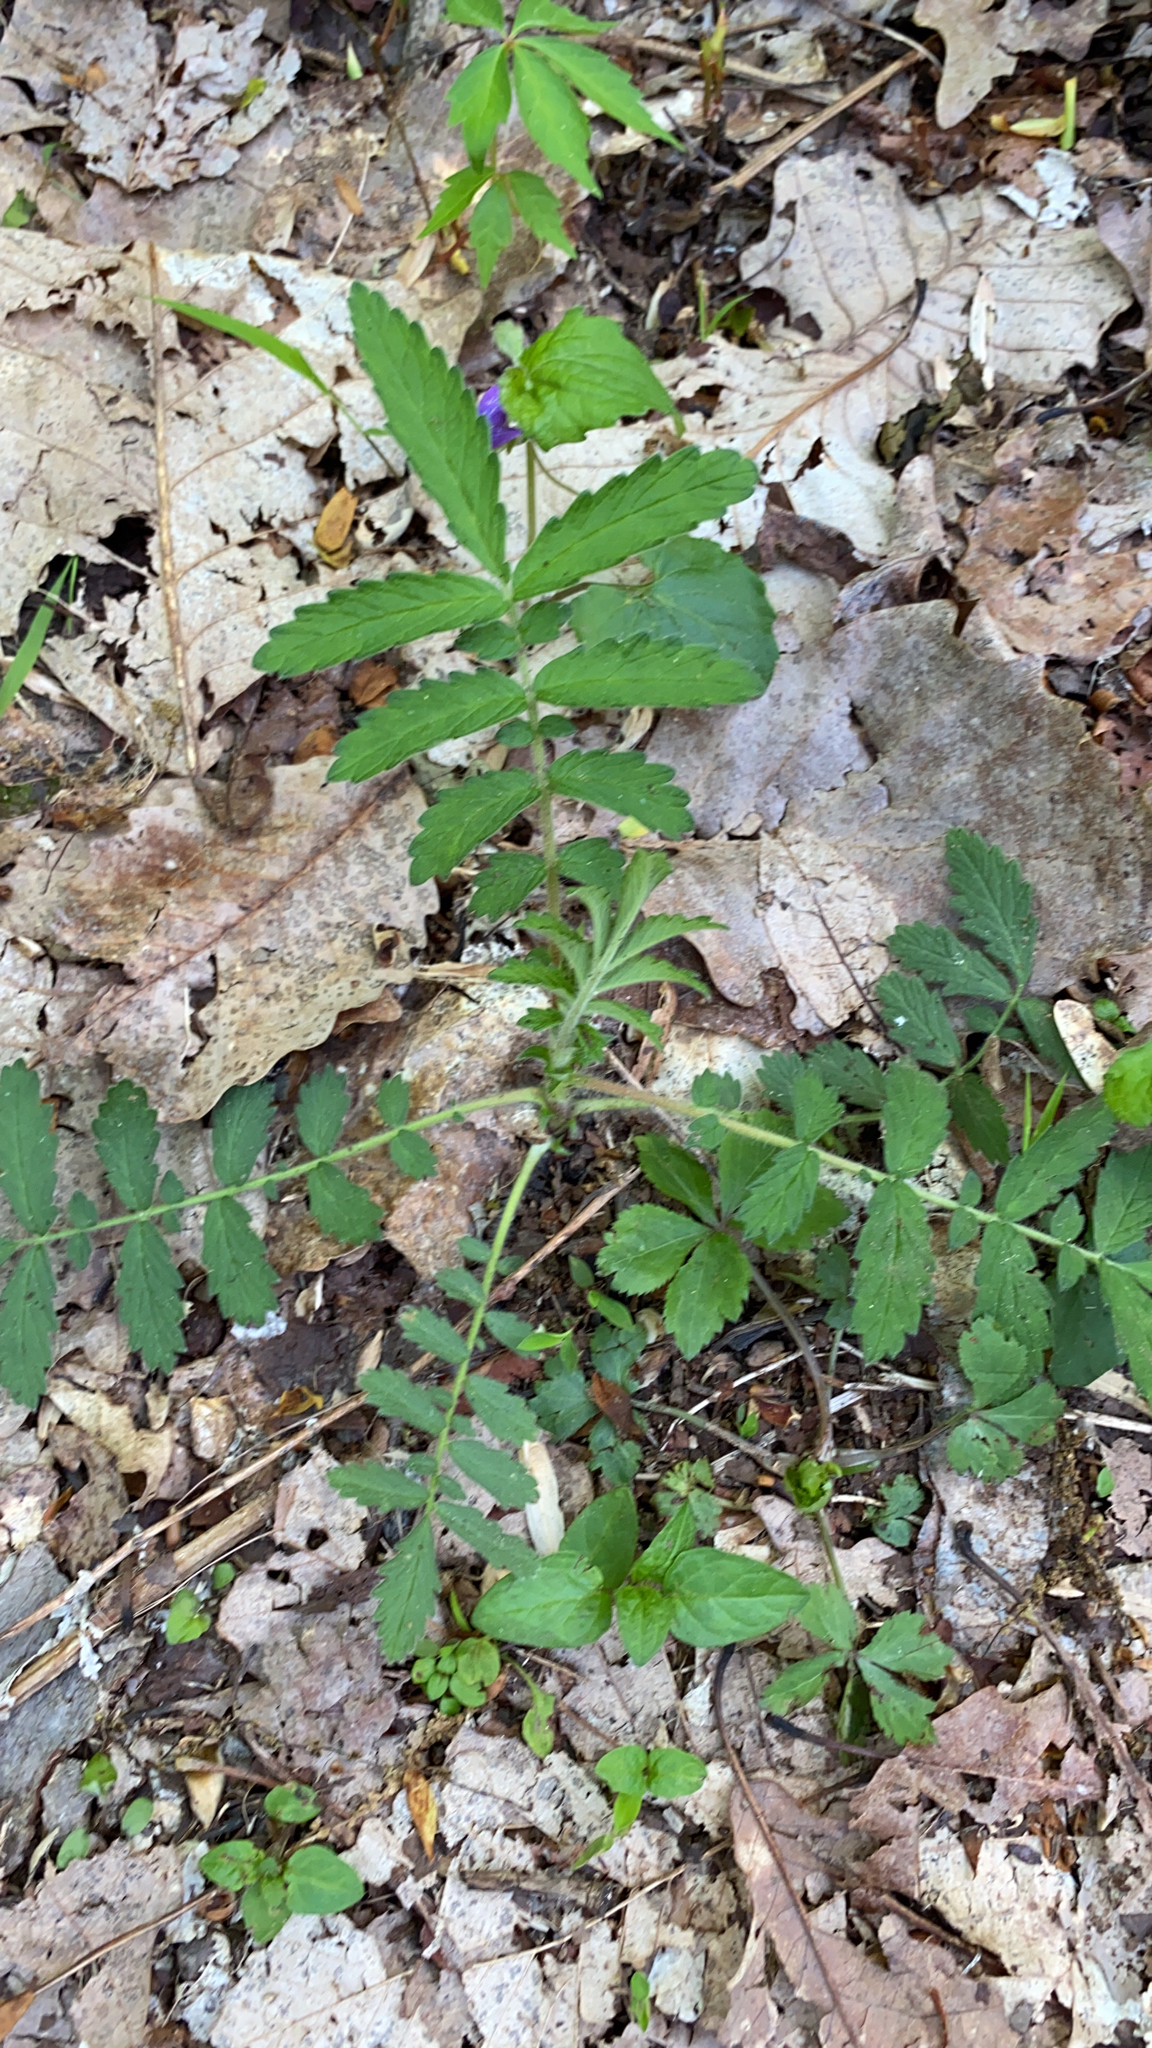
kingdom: Plantae
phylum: Tracheophyta
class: Magnoliopsida
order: Rosales
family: Rosaceae
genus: Agrimonia
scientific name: Agrimonia parviflora
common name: Harvest-lice
